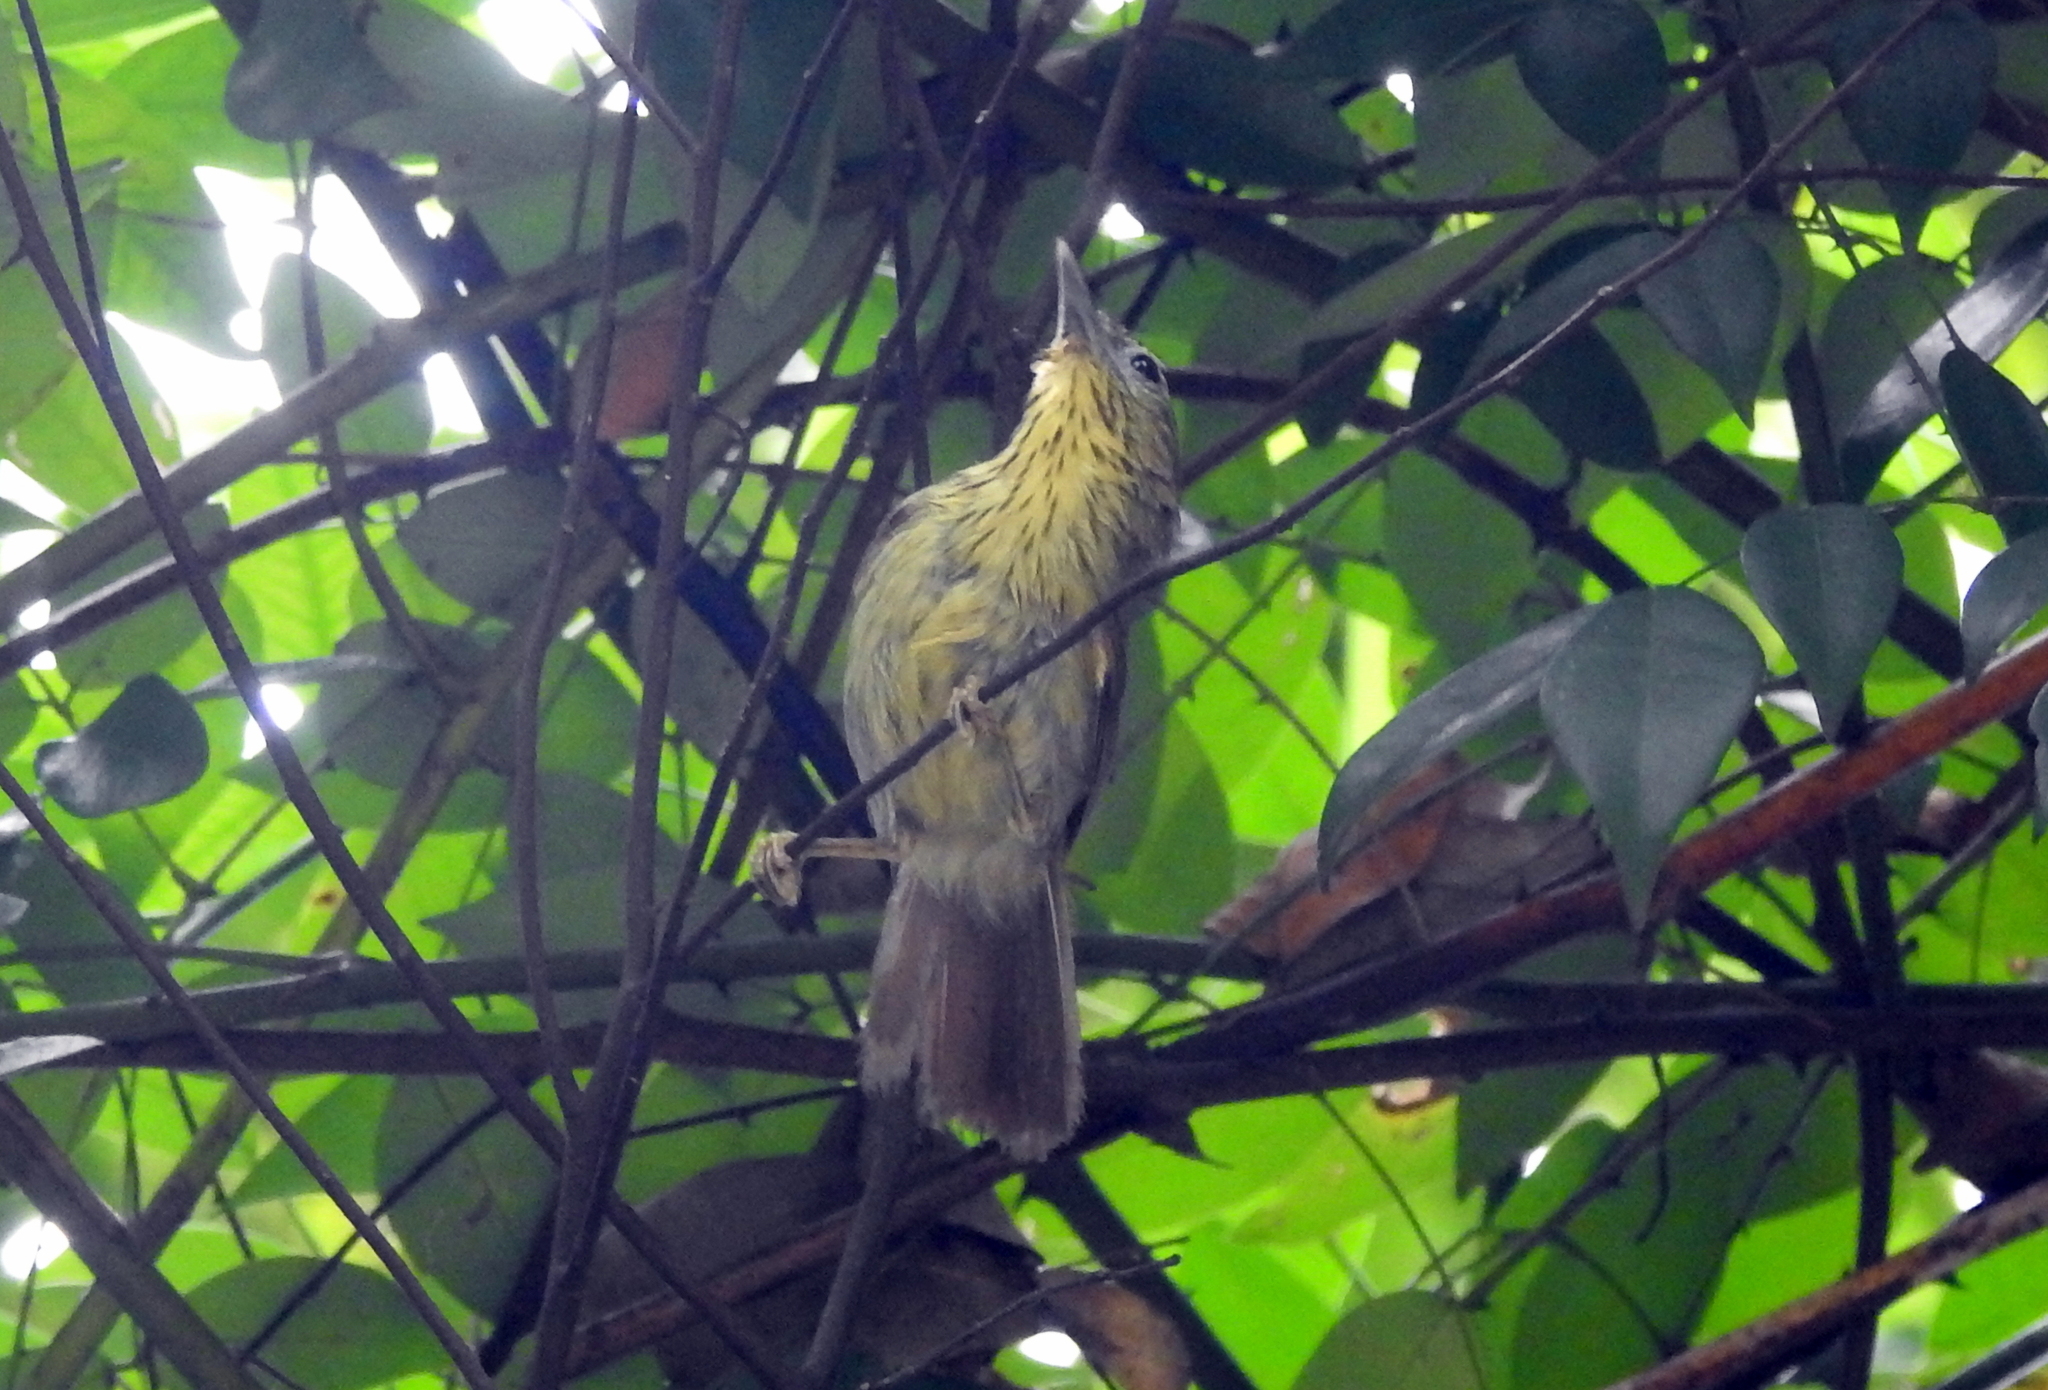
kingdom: Animalia
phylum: Chordata
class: Aves
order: Passeriformes
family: Timaliidae
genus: Macronus
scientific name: Macronus gularis
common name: Striped tit-babbler
